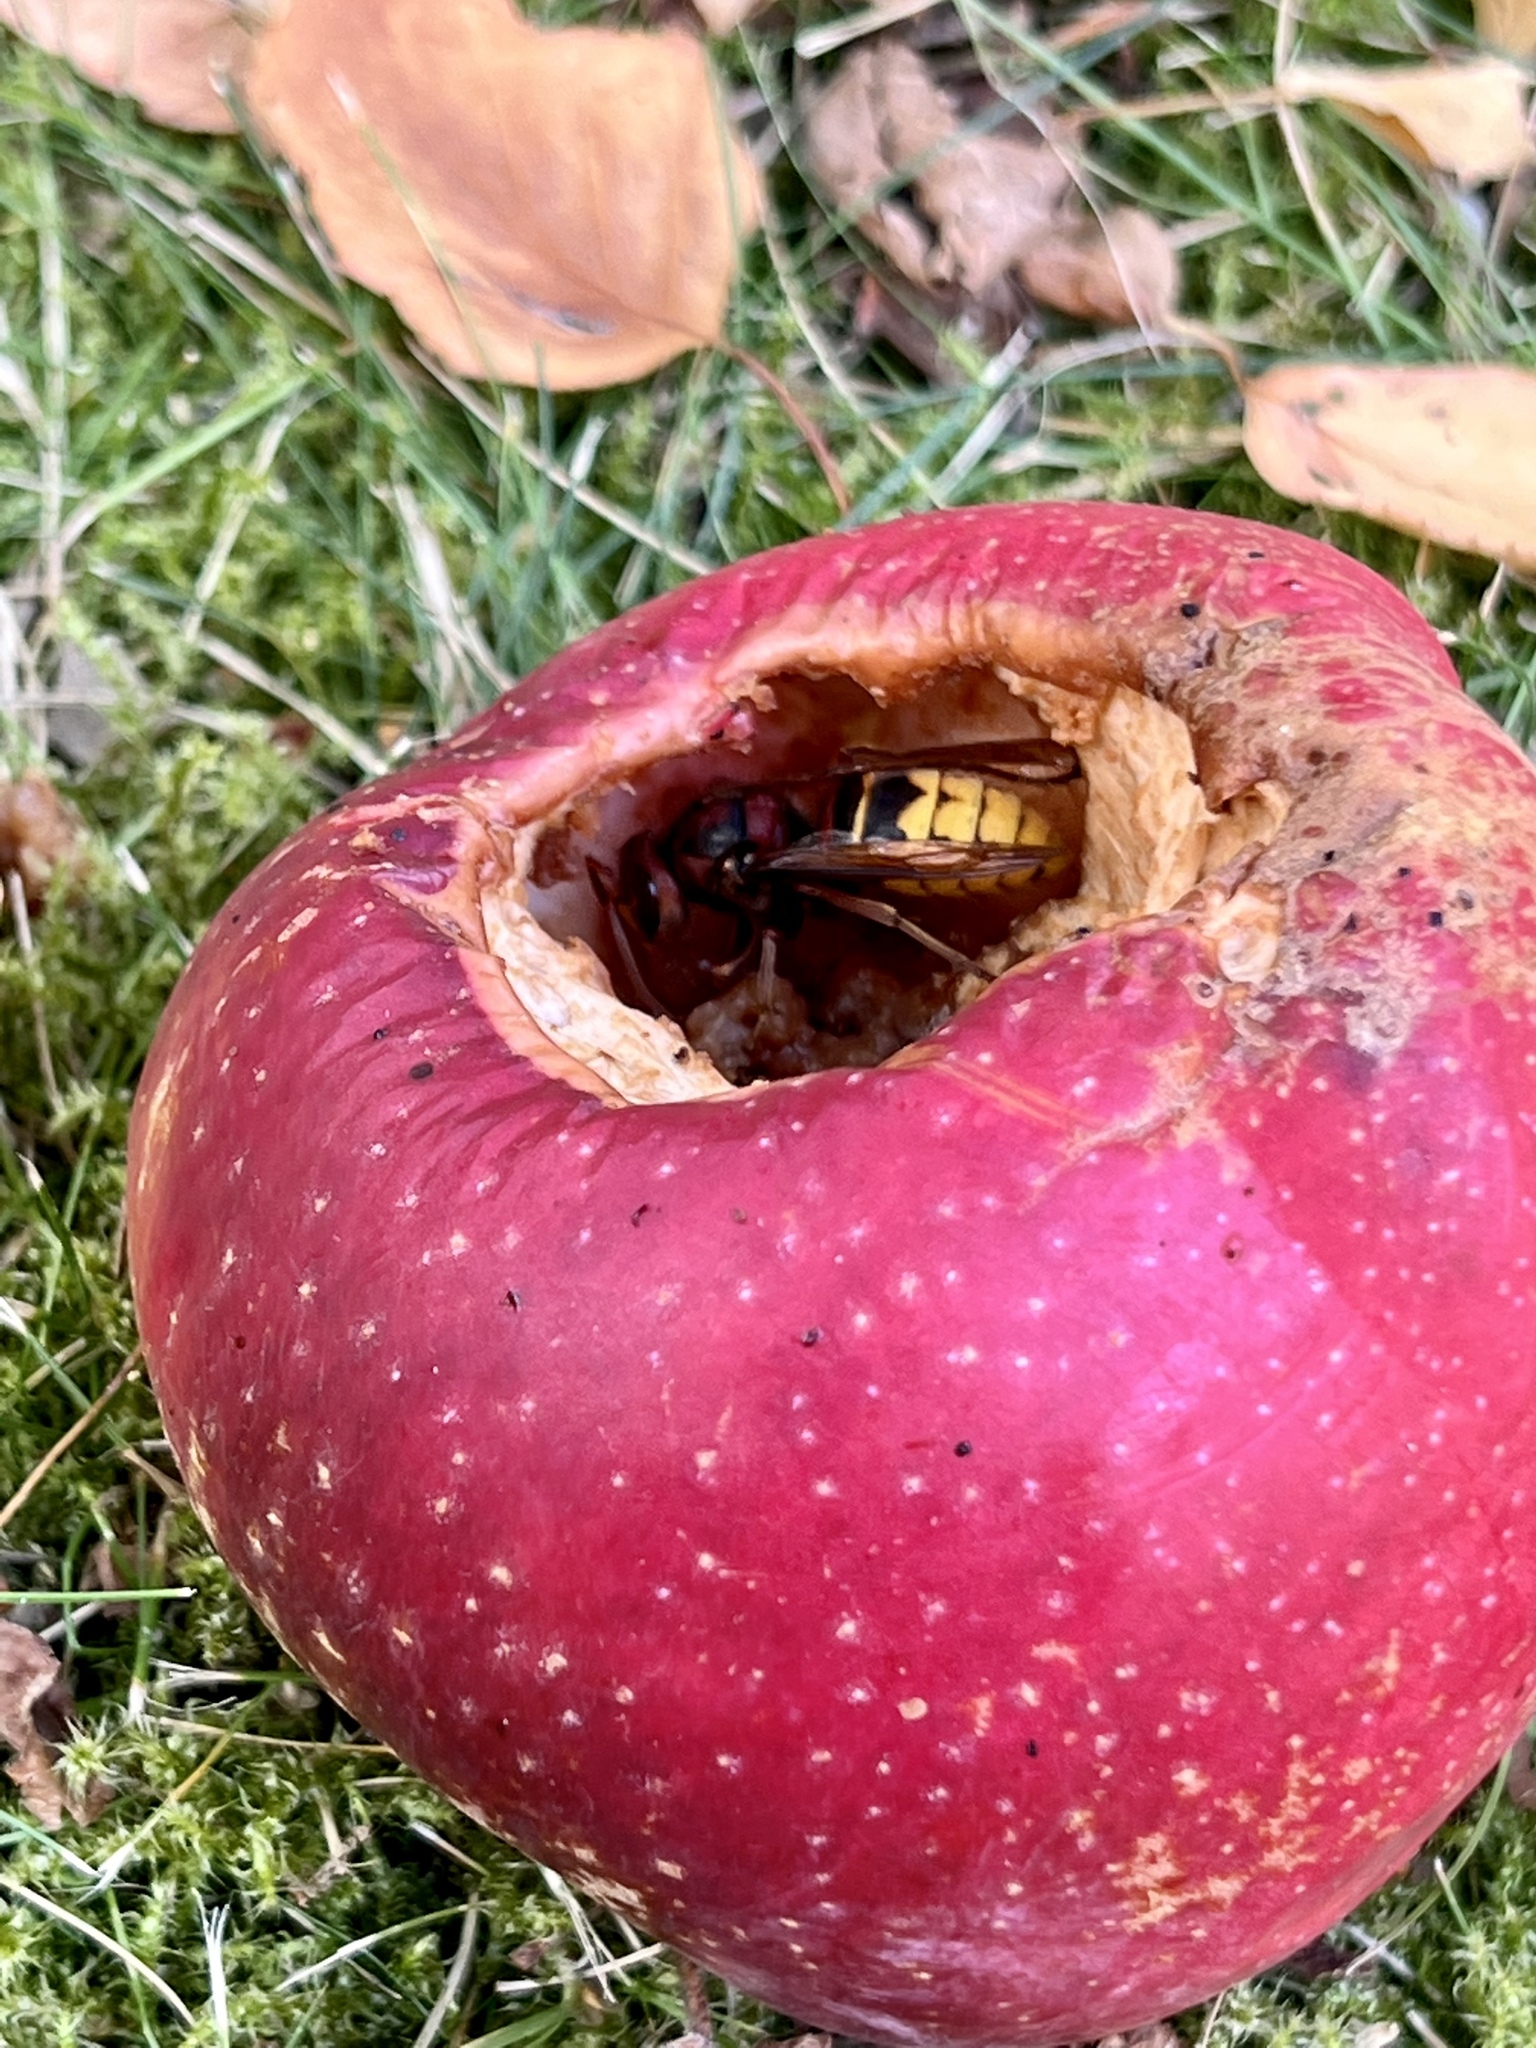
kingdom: Animalia
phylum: Arthropoda
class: Insecta
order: Hymenoptera
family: Vespidae
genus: Vespa
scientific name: Vespa crabro
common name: Hornet
